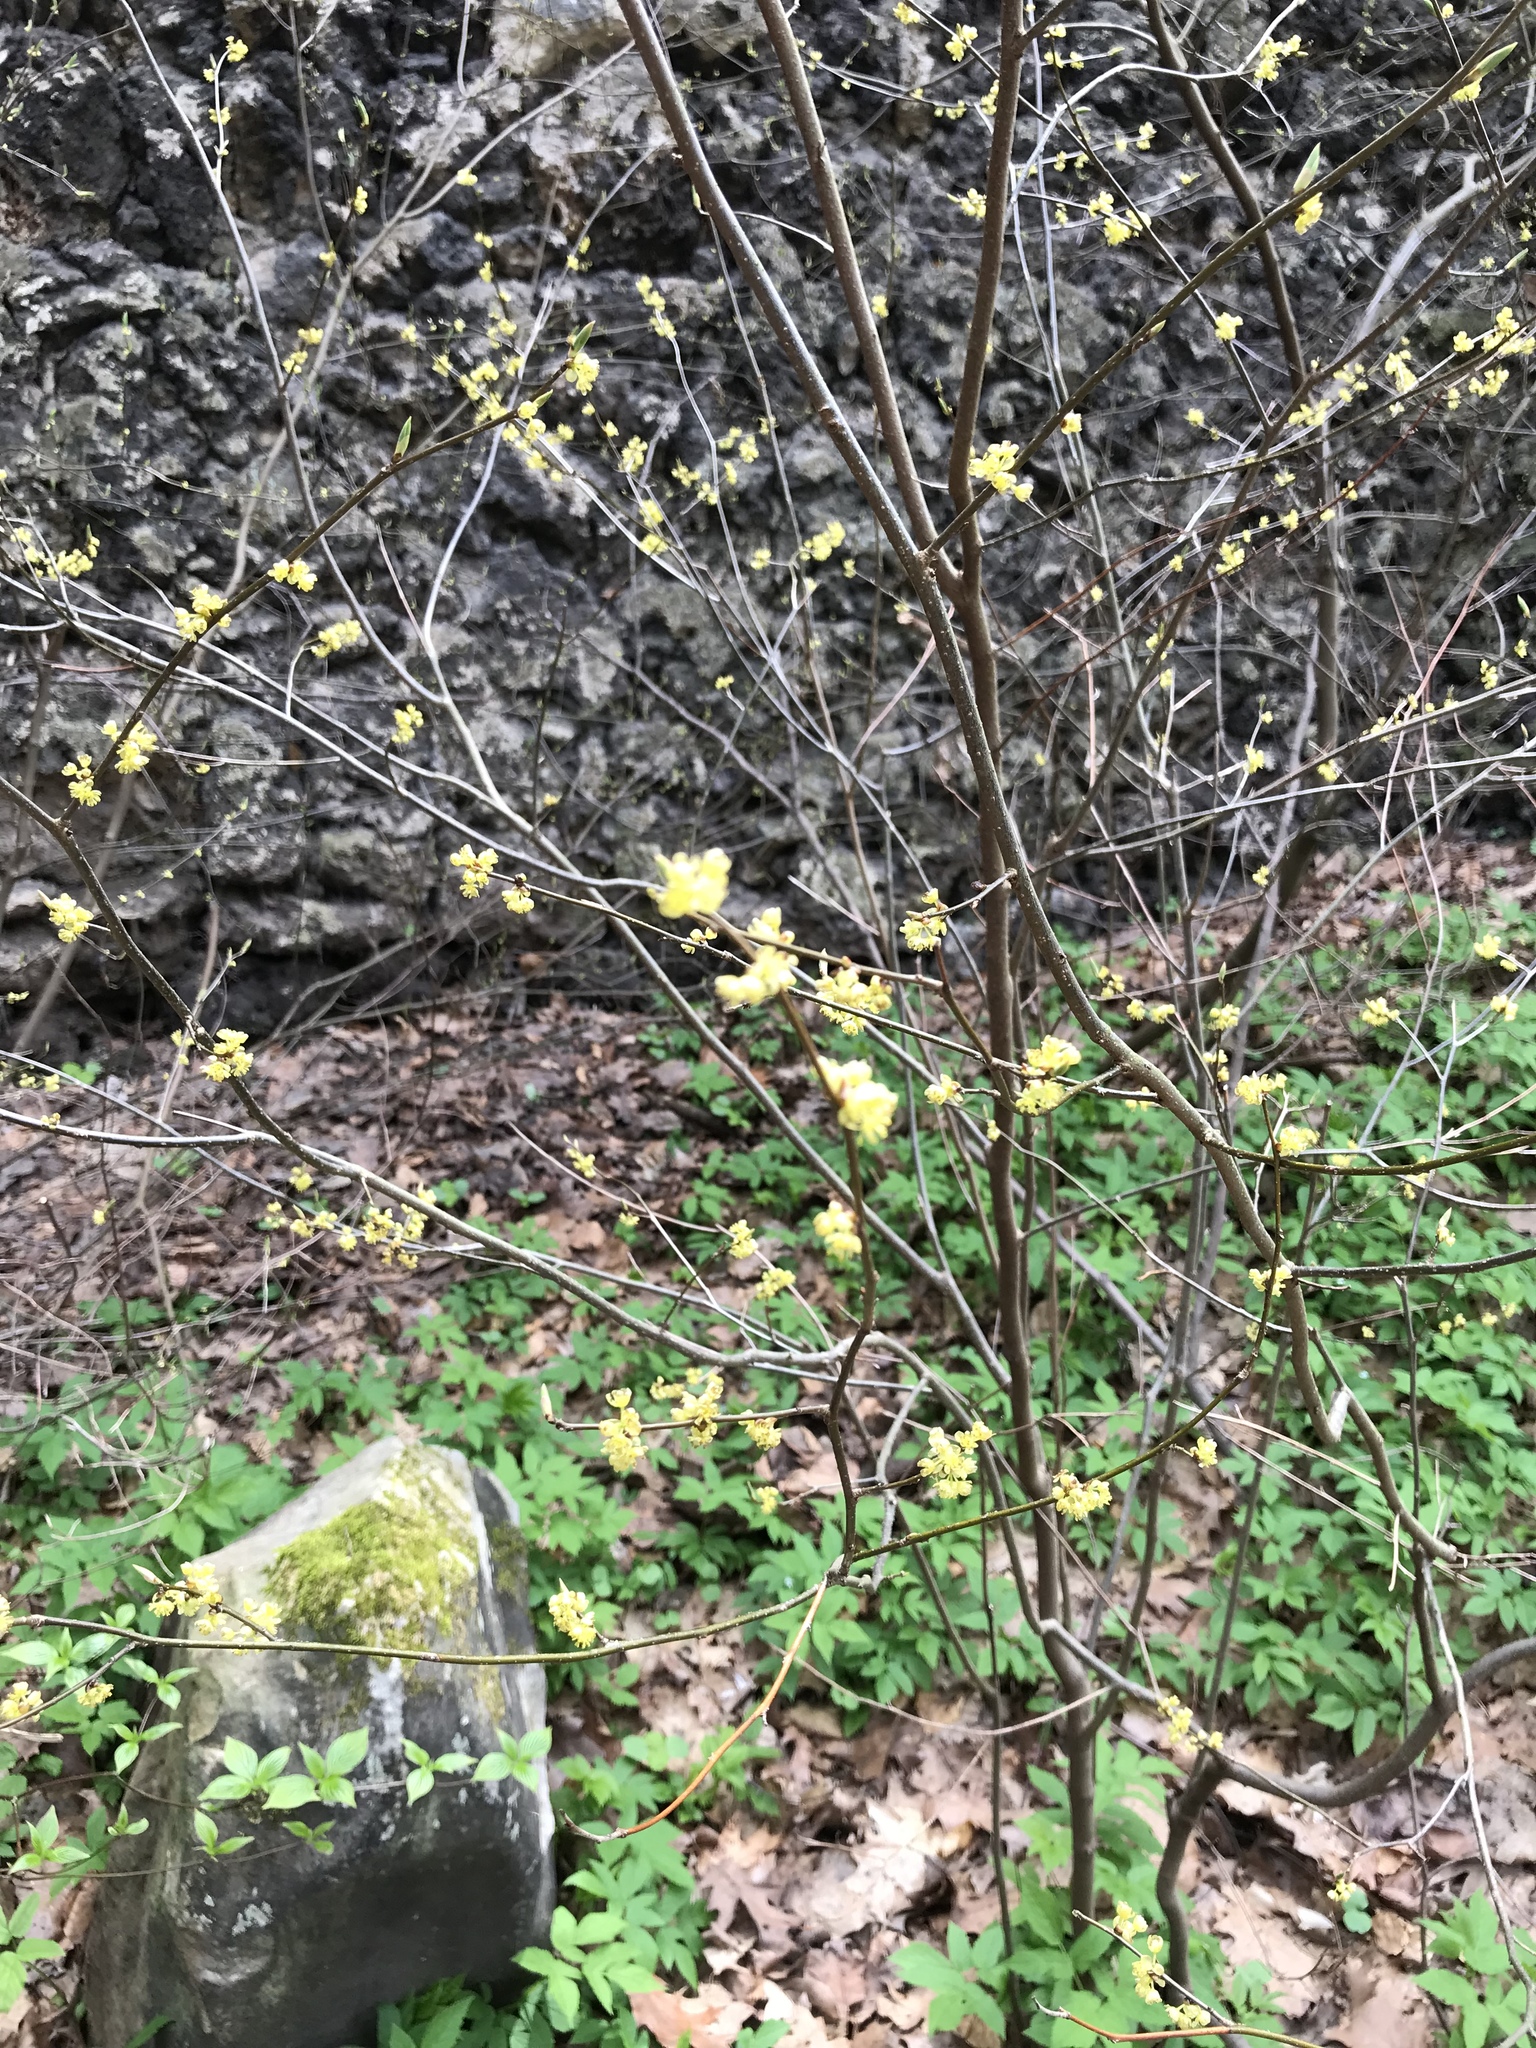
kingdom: Plantae
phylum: Tracheophyta
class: Magnoliopsida
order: Laurales
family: Lauraceae
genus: Lindera
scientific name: Lindera benzoin
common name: Spicebush
